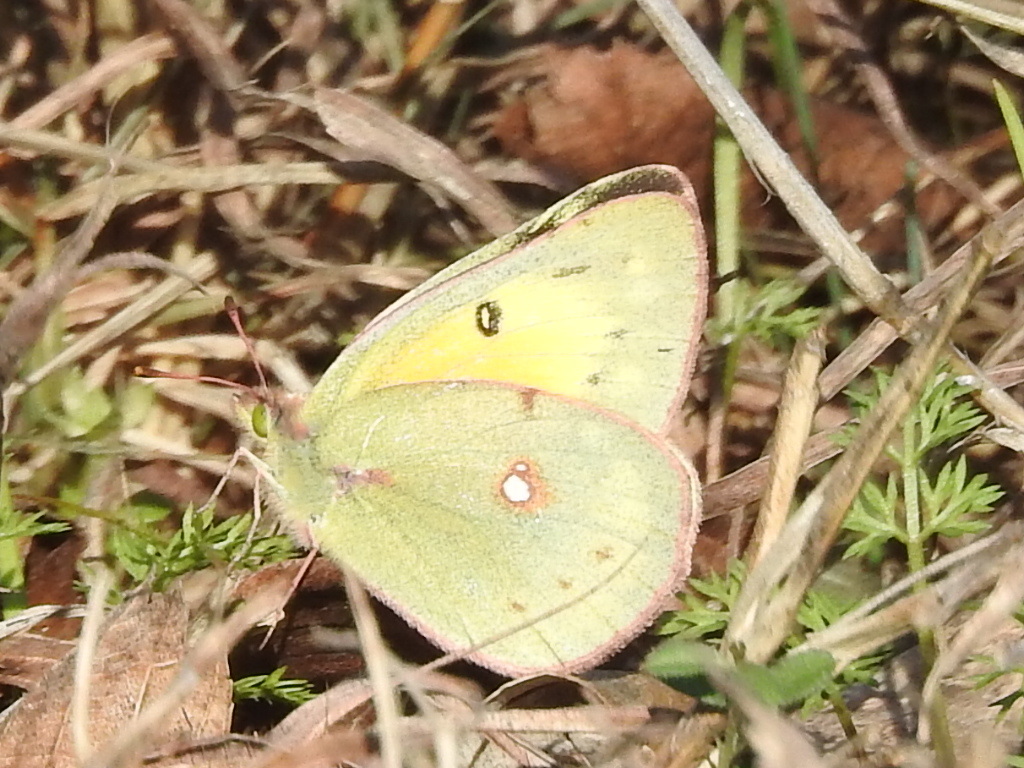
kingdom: Animalia
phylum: Arthropoda
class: Insecta
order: Lepidoptera
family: Pieridae
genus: Colias
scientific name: Colias eurytheme
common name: Alfalfa butterfly
